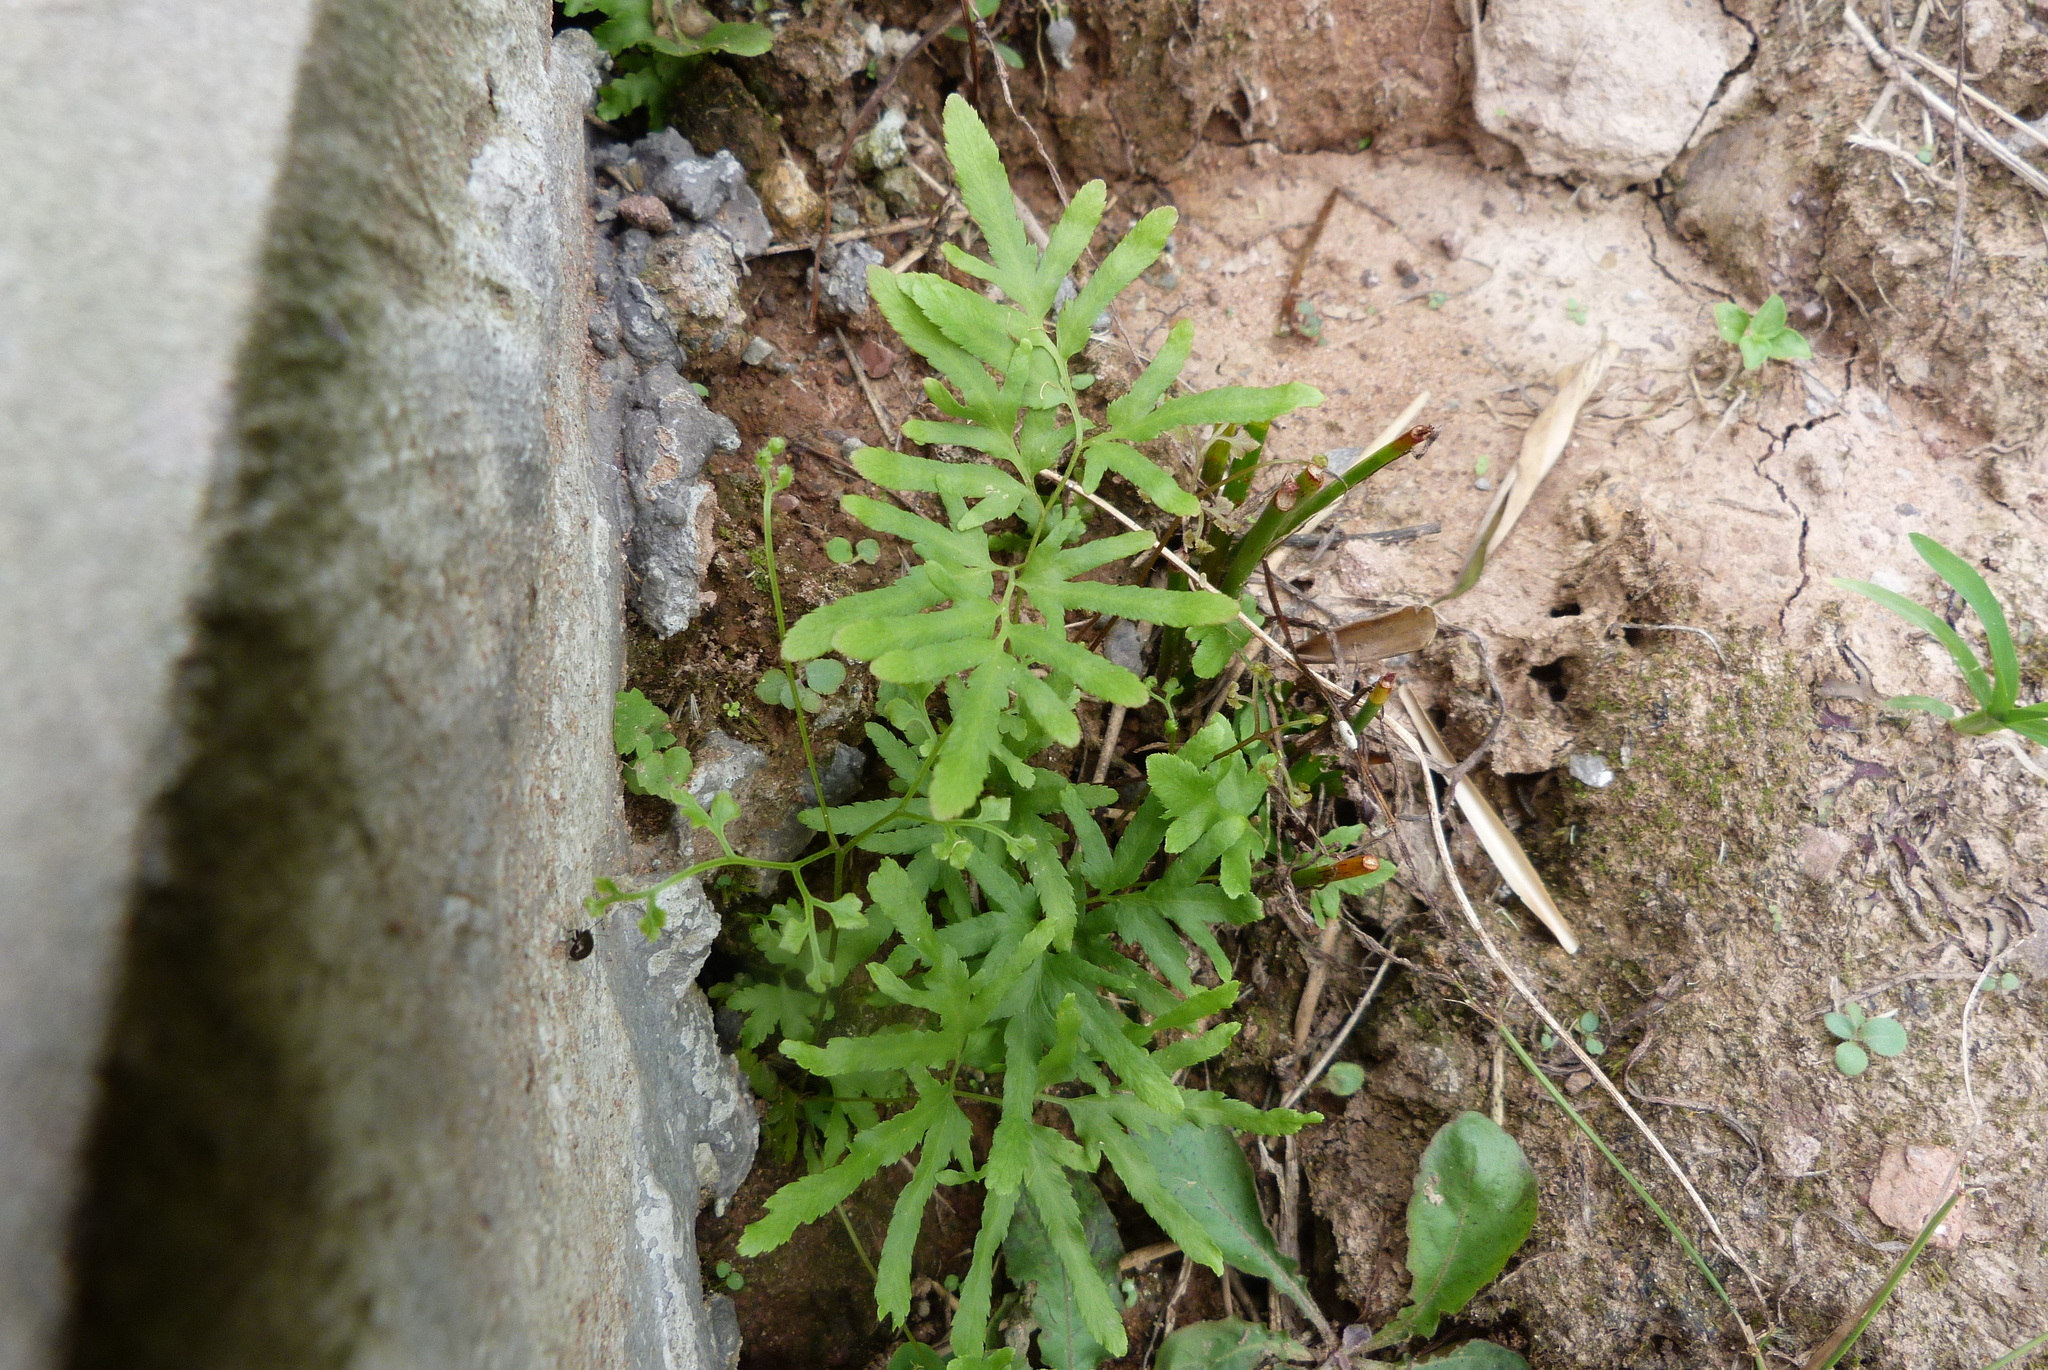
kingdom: Plantae
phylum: Tracheophyta
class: Polypodiopsida
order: Schizaeales
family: Lygodiaceae
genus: Lygodium
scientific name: Lygodium japonicum
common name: Japanese climbing fern
